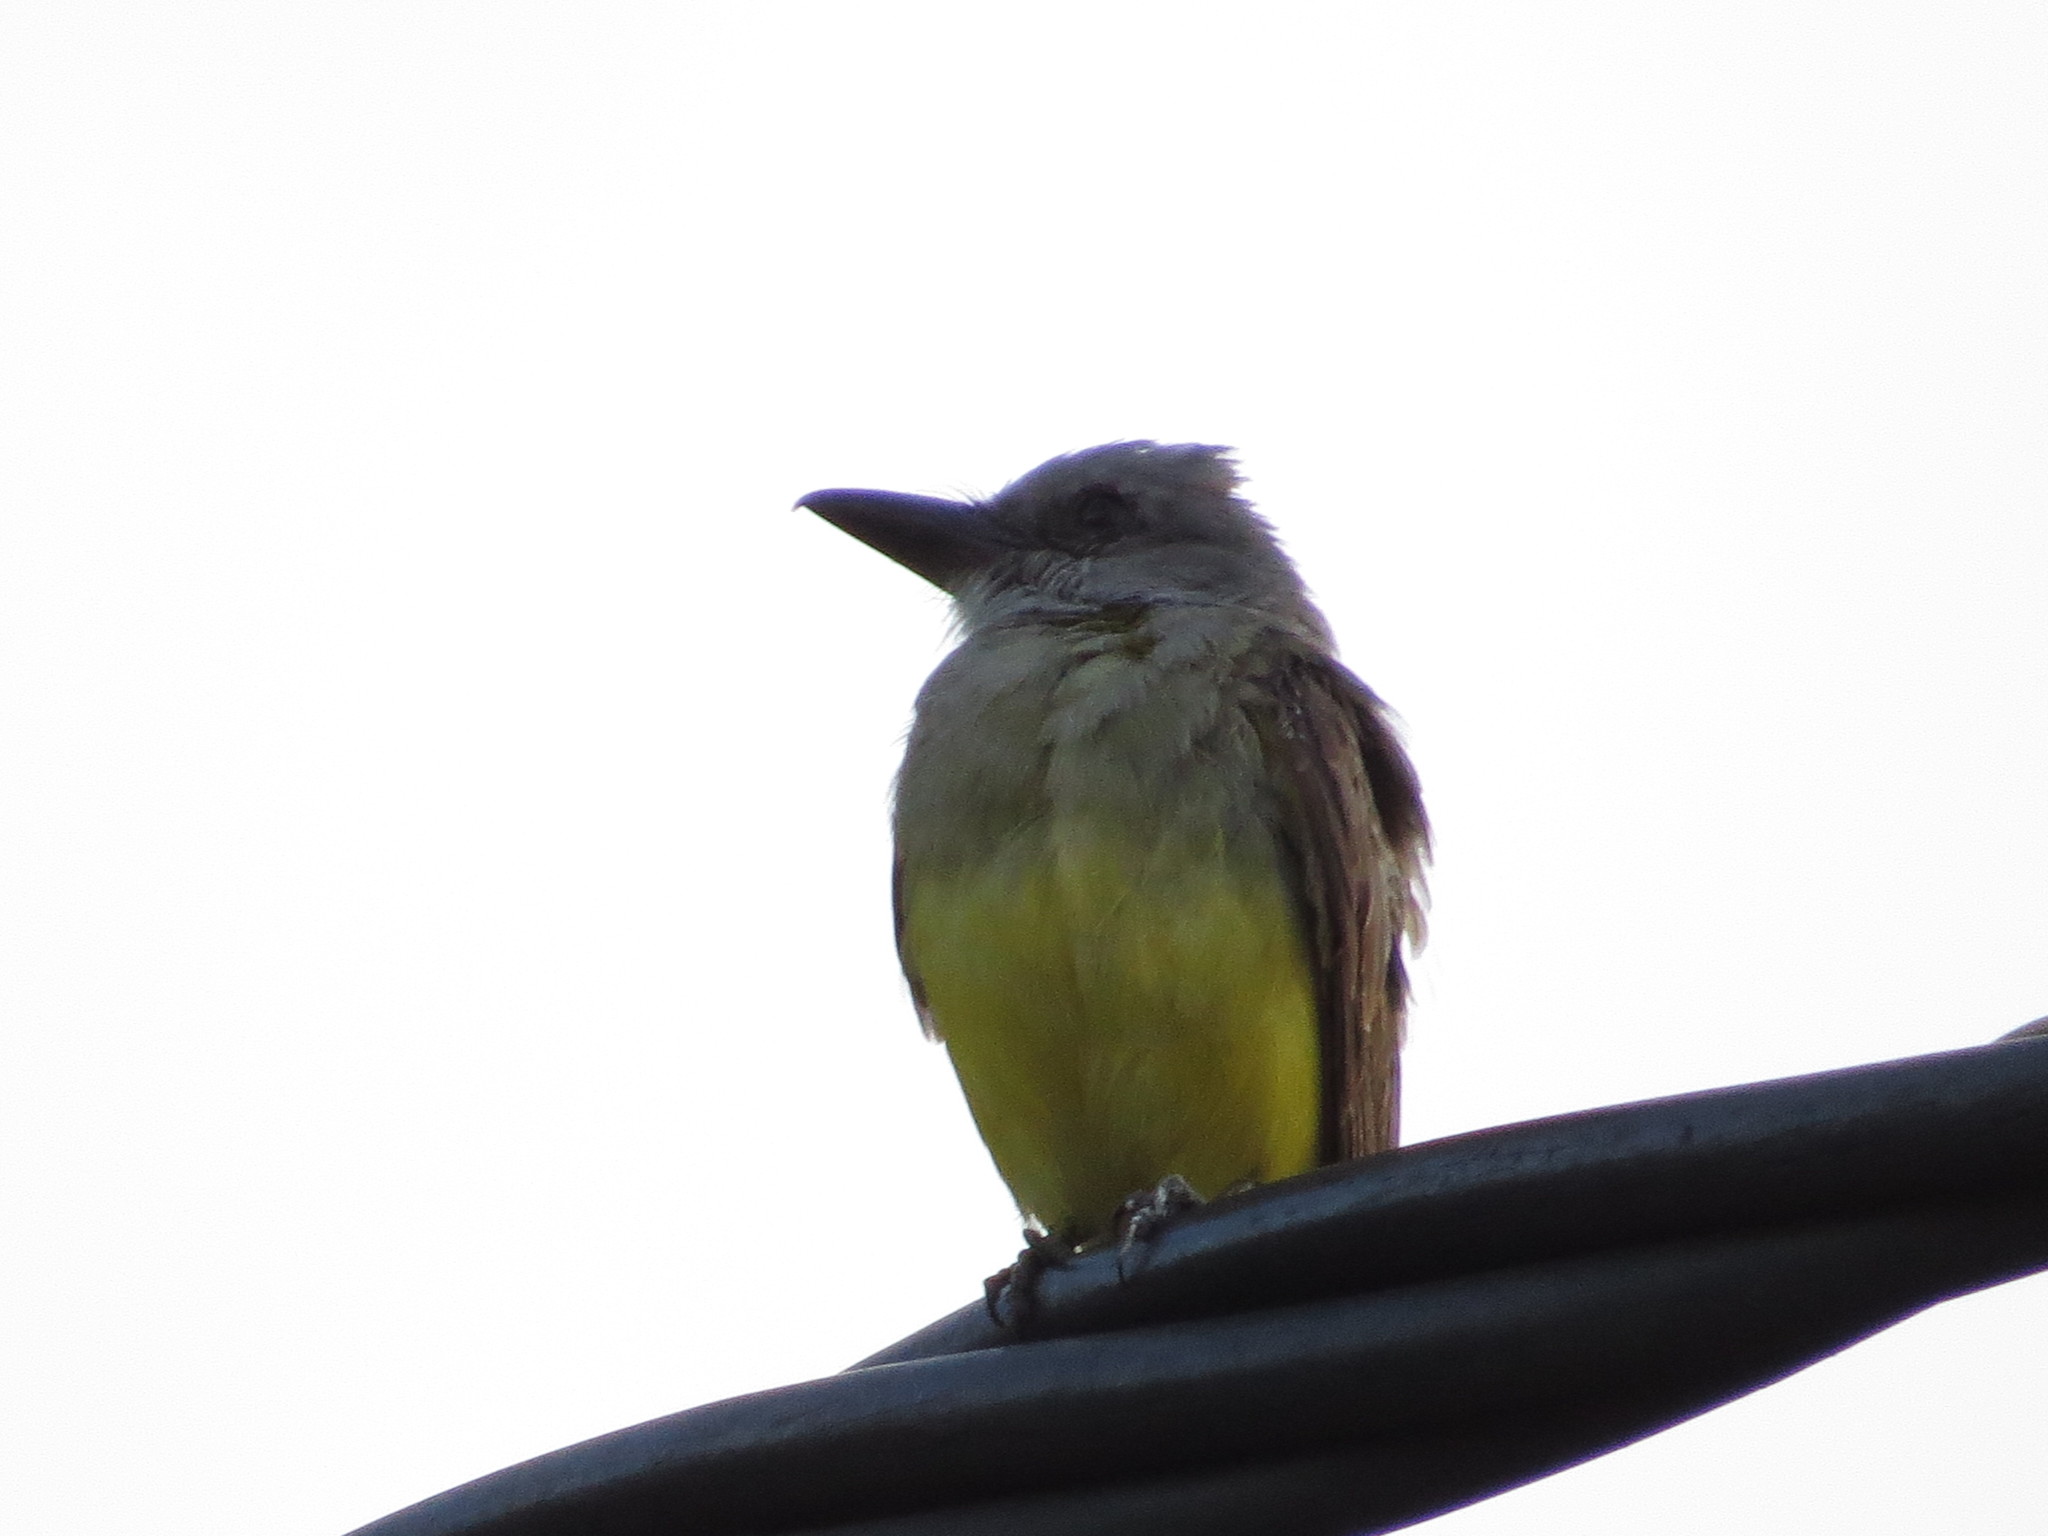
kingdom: Animalia
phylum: Chordata
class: Aves
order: Passeriformes
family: Tyrannidae
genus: Tyrannus
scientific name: Tyrannus melancholicus
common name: Tropical kingbird
